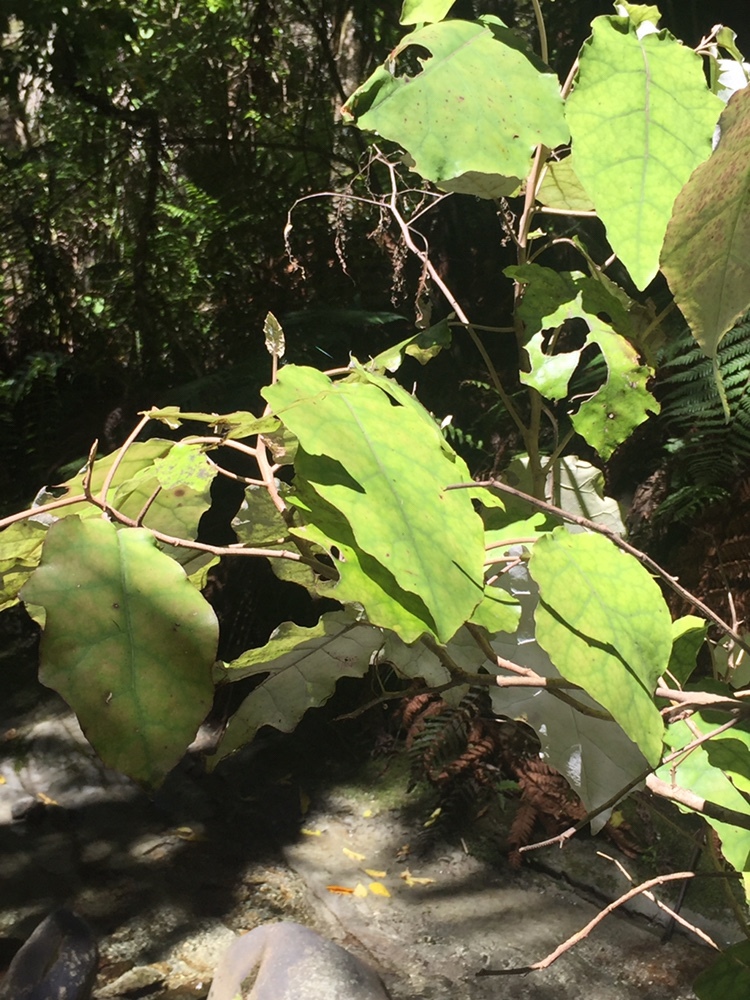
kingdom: Plantae
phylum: Tracheophyta
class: Magnoliopsida
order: Asterales
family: Asteraceae
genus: Brachyglottis
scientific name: Brachyglottis repanda
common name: Hedge ragwort
